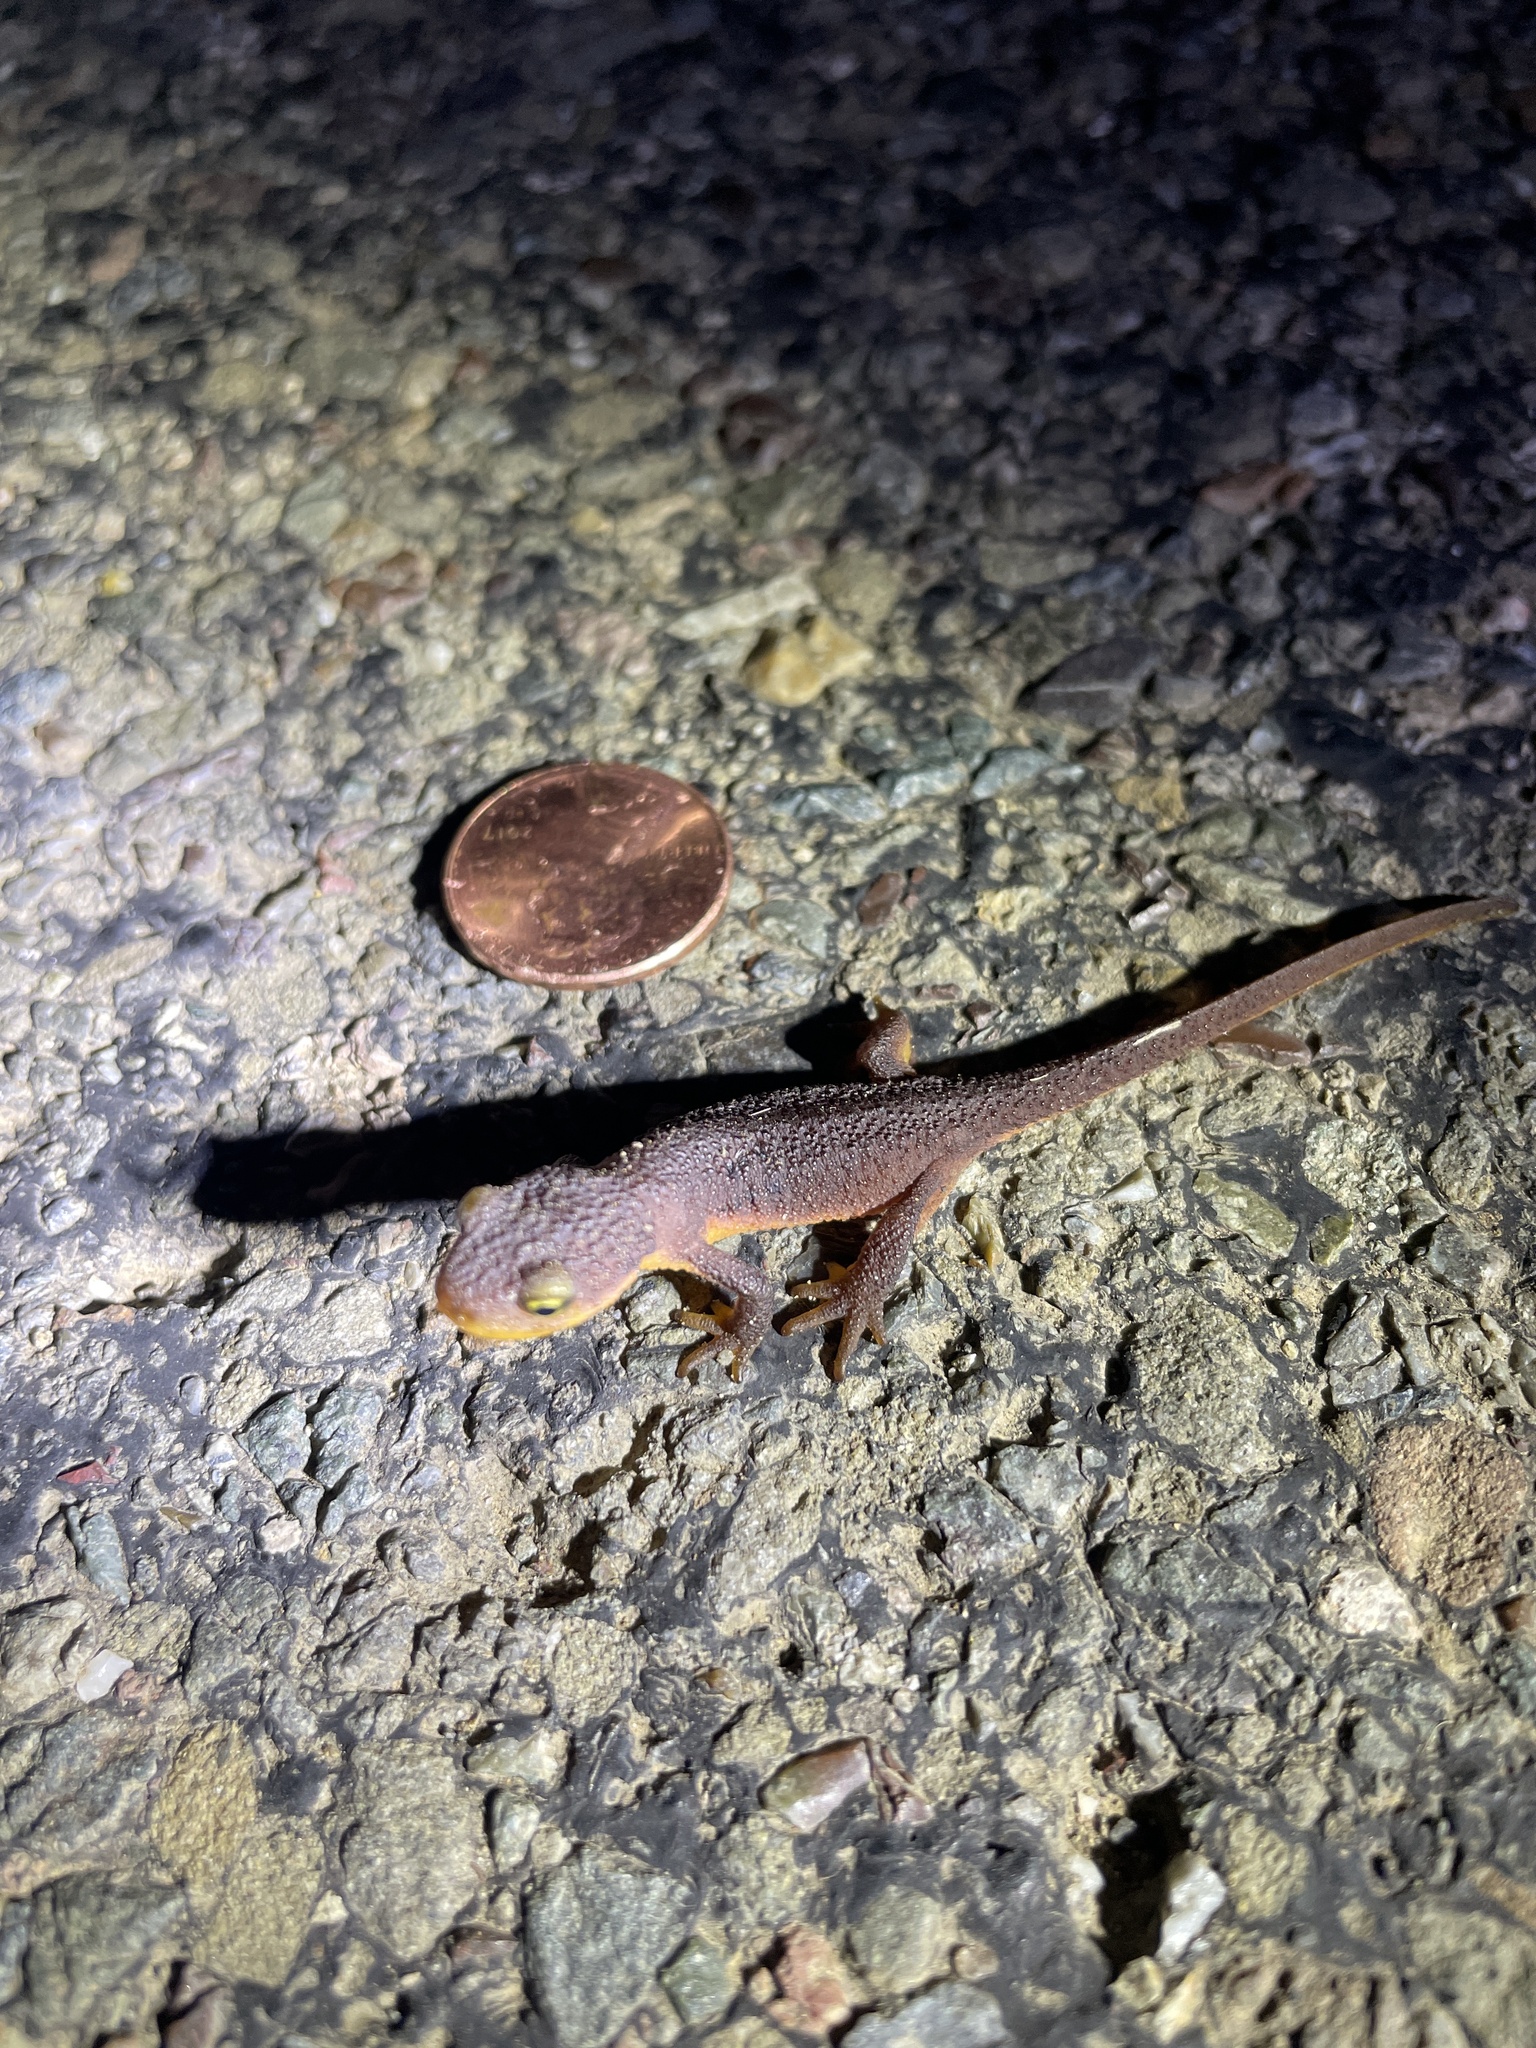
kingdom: Animalia
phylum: Chordata
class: Amphibia
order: Caudata
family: Salamandridae
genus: Taricha
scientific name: Taricha torosa
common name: California newt
